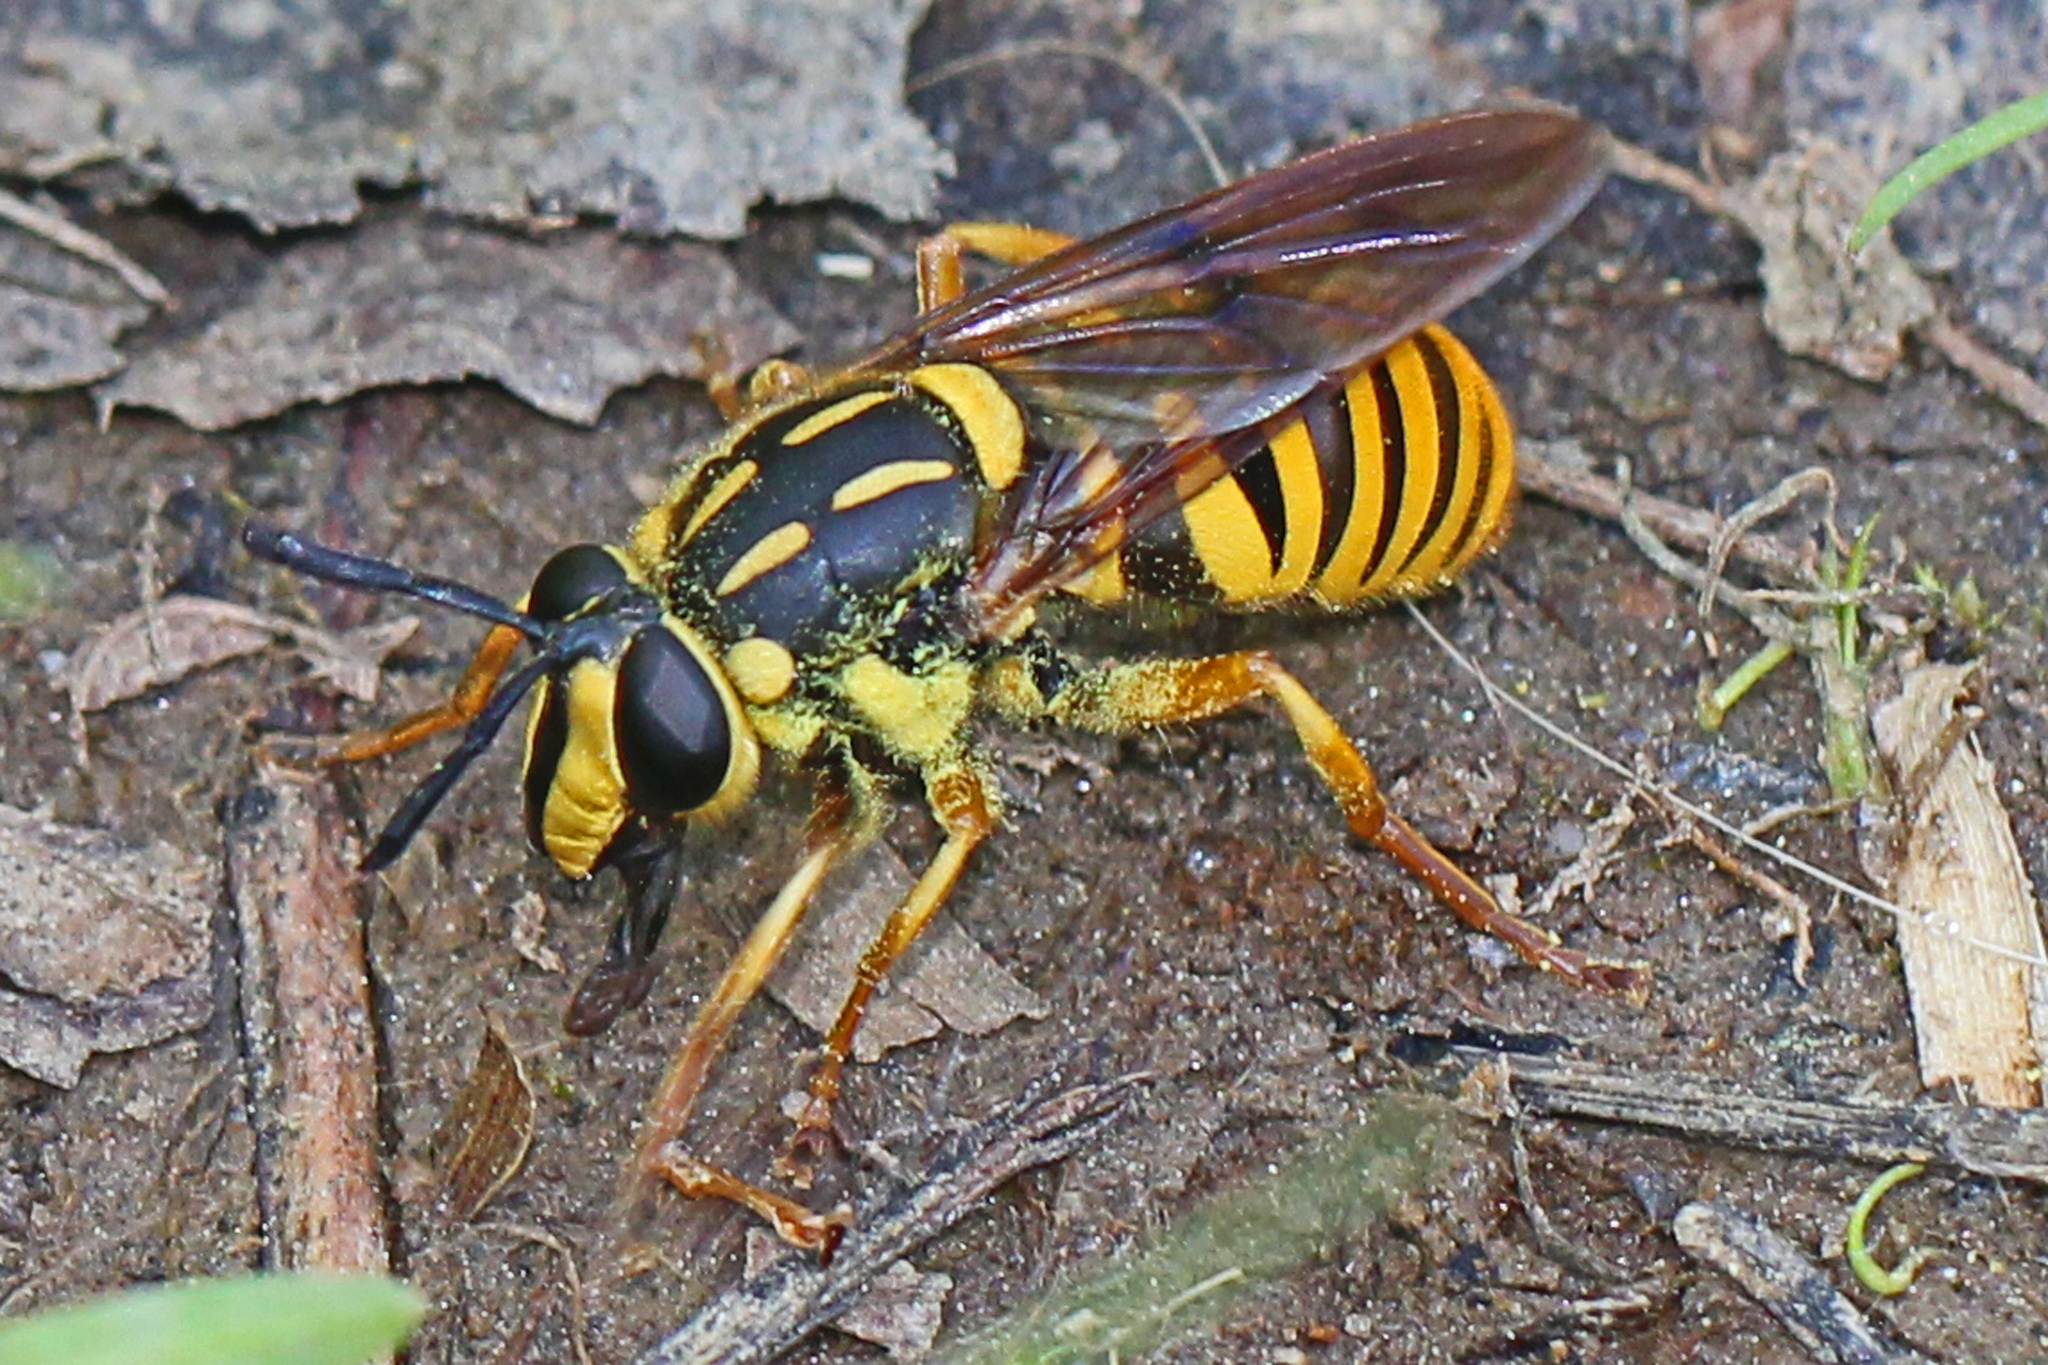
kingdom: Animalia
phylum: Arthropoda
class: Insecta
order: Diptera
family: Syrphidae
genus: Sphecomyia
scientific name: Sphecomyia vittata
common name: Long-horned yellowjacket fly
